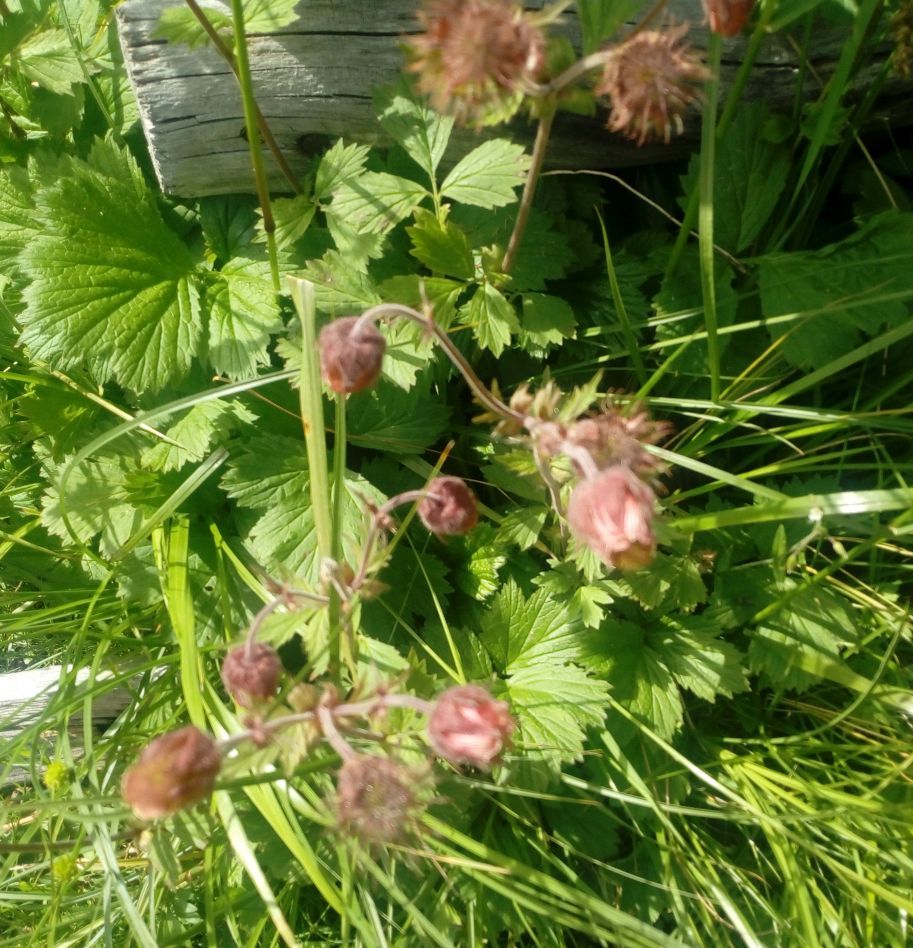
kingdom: Plantae
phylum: Tracheophyta
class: Magnoliopsida
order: Rosales
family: Rosaceae
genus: Geum
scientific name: Geum rivale
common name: Water avens
